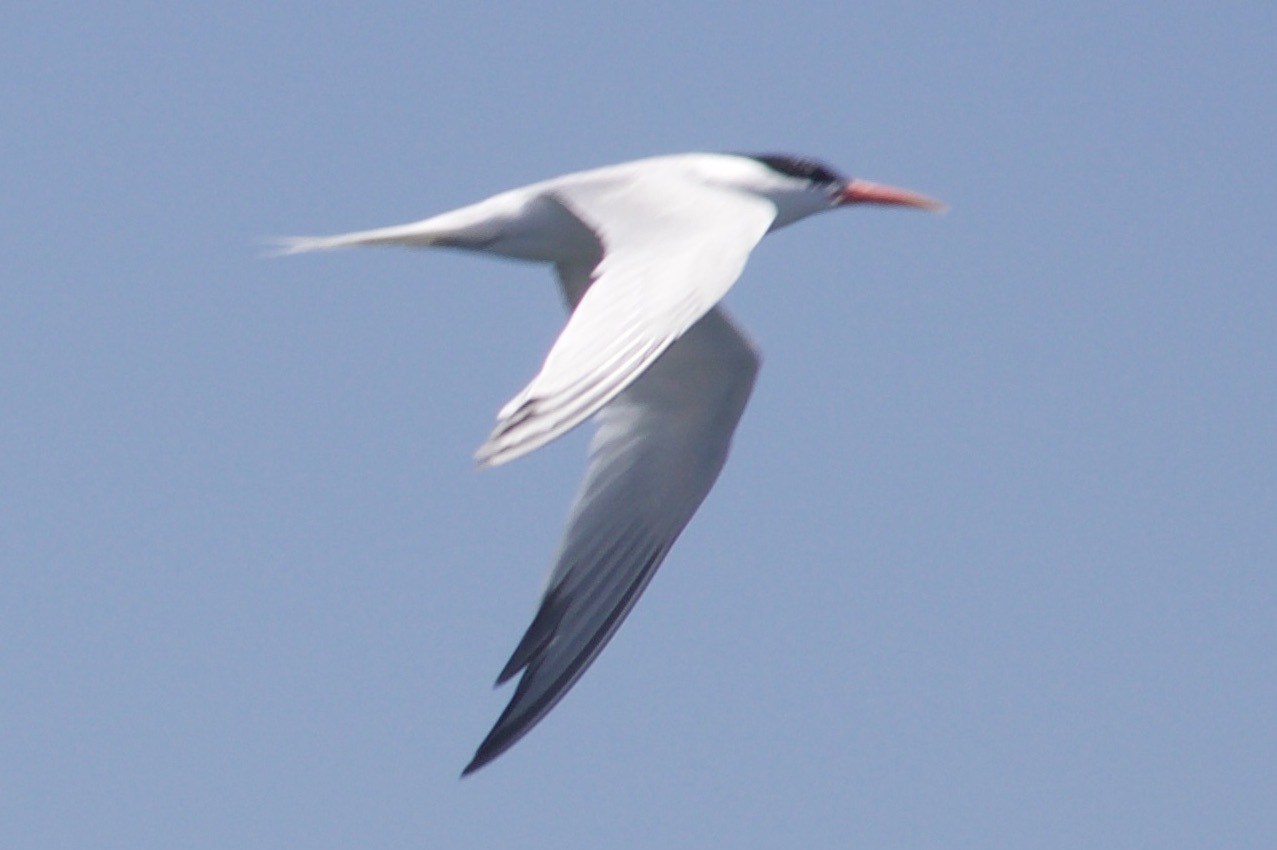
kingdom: Animalia
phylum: Chordata
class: Aves
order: Charadriiformes
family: Laridae
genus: Thalasseus
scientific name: Thalasseus elegans
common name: Elegant tern
